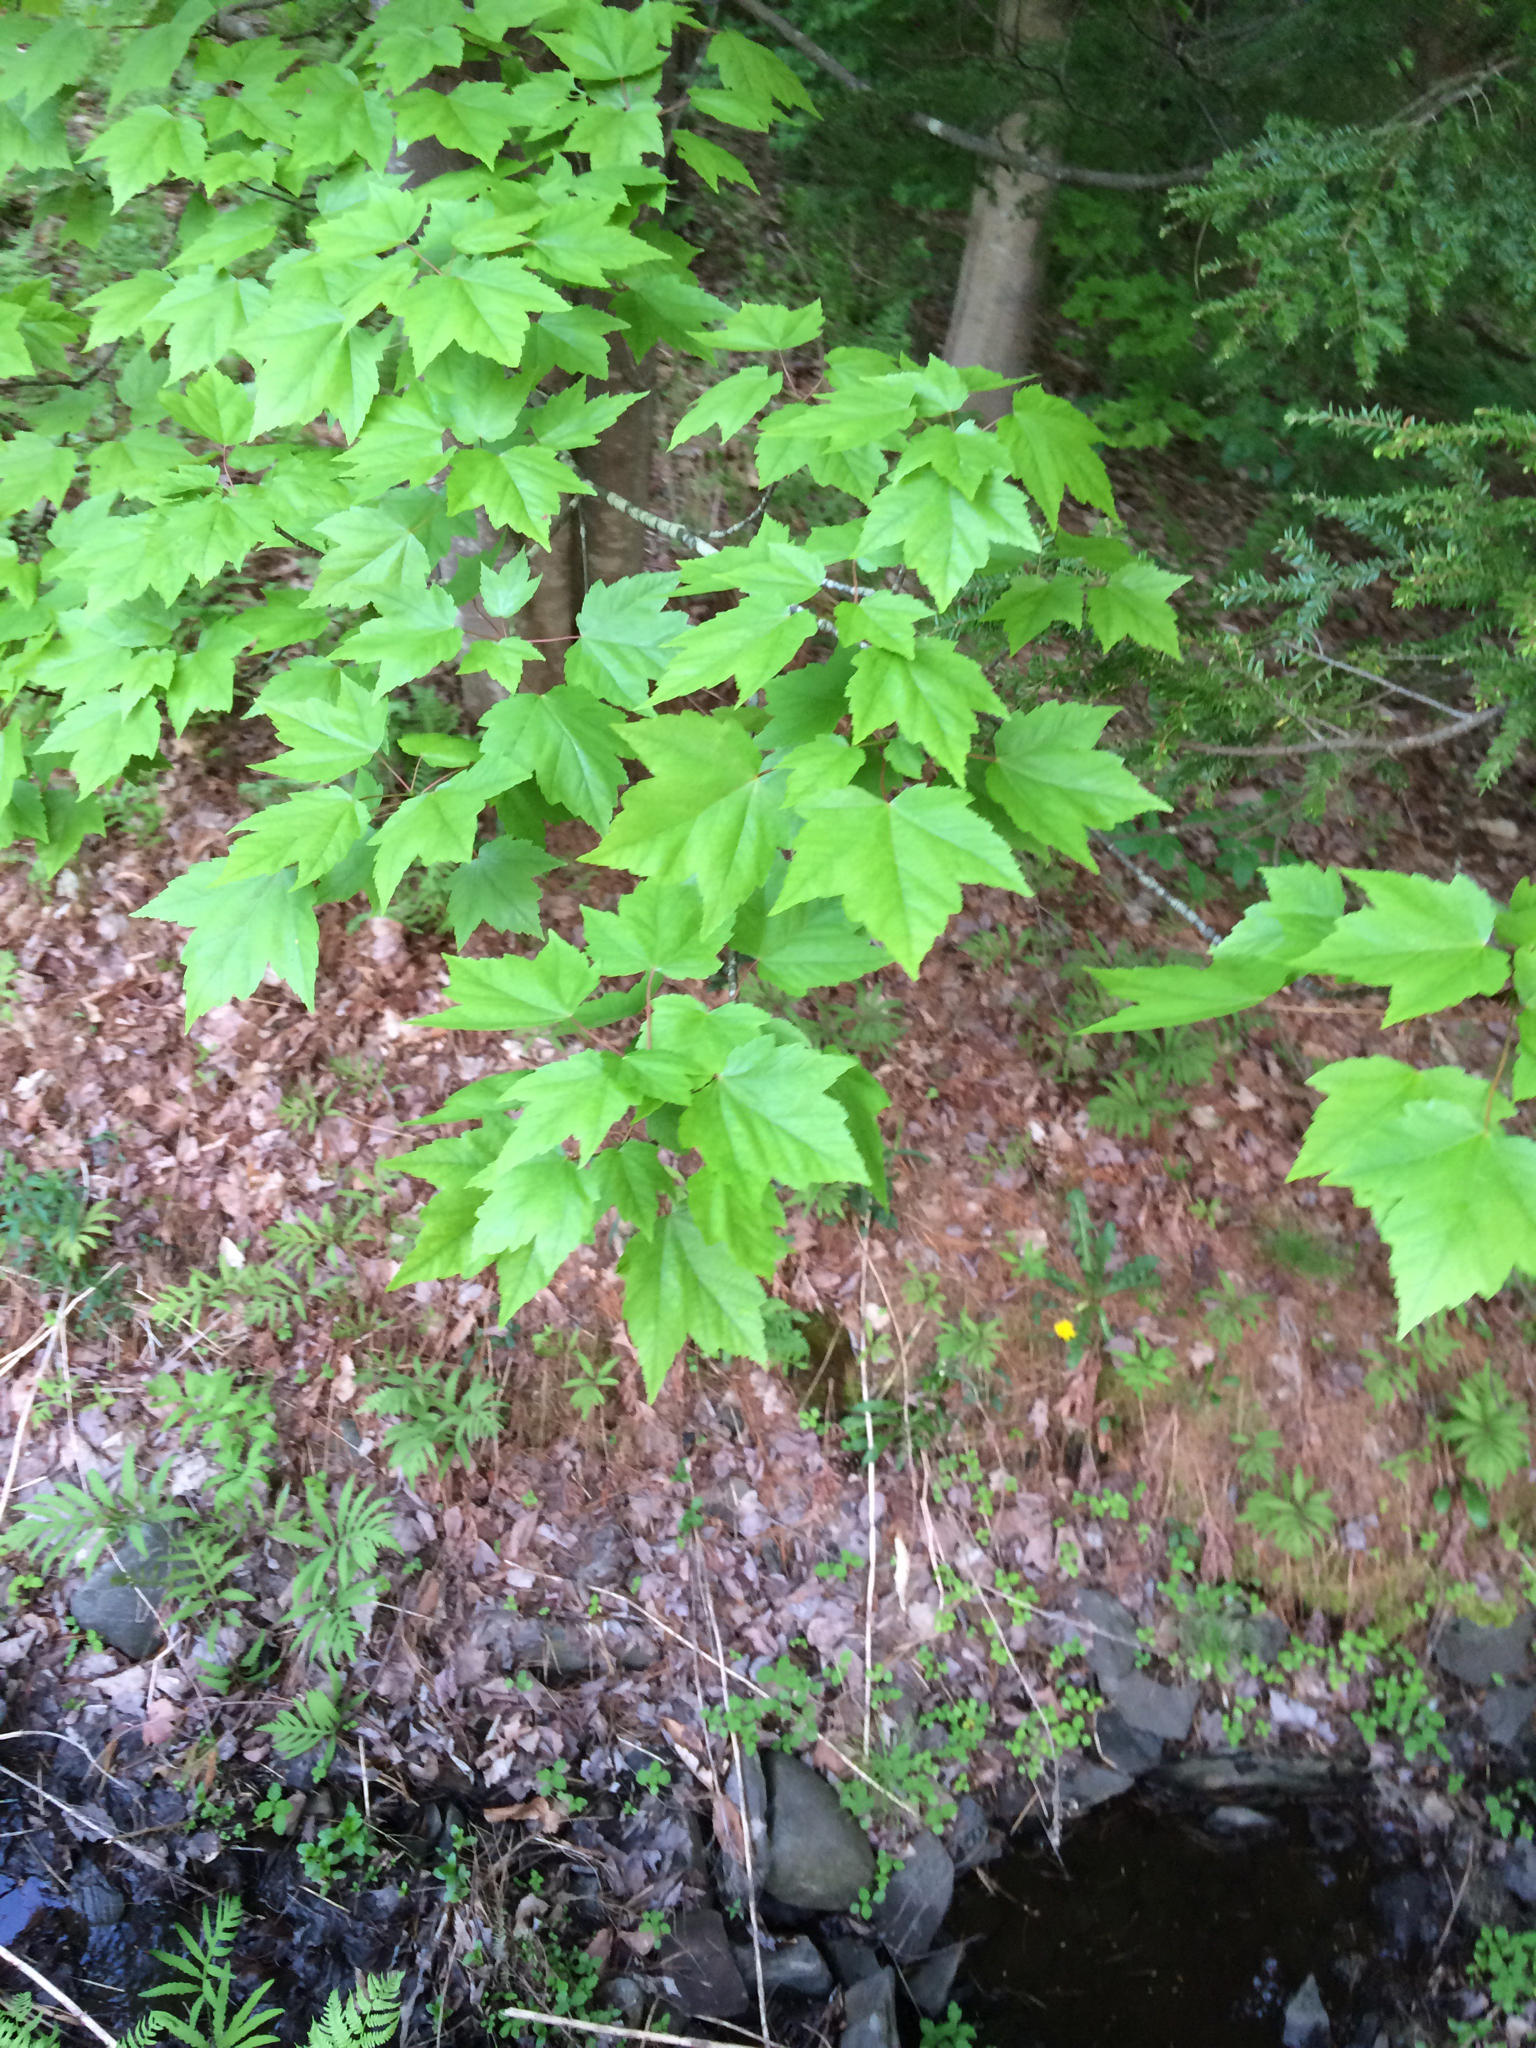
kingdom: Plantae
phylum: Tracheophyta
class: Magnoliopsida
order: Sapindales
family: Sapindaceae
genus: Acer
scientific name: Acer rubrum
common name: Red maple
